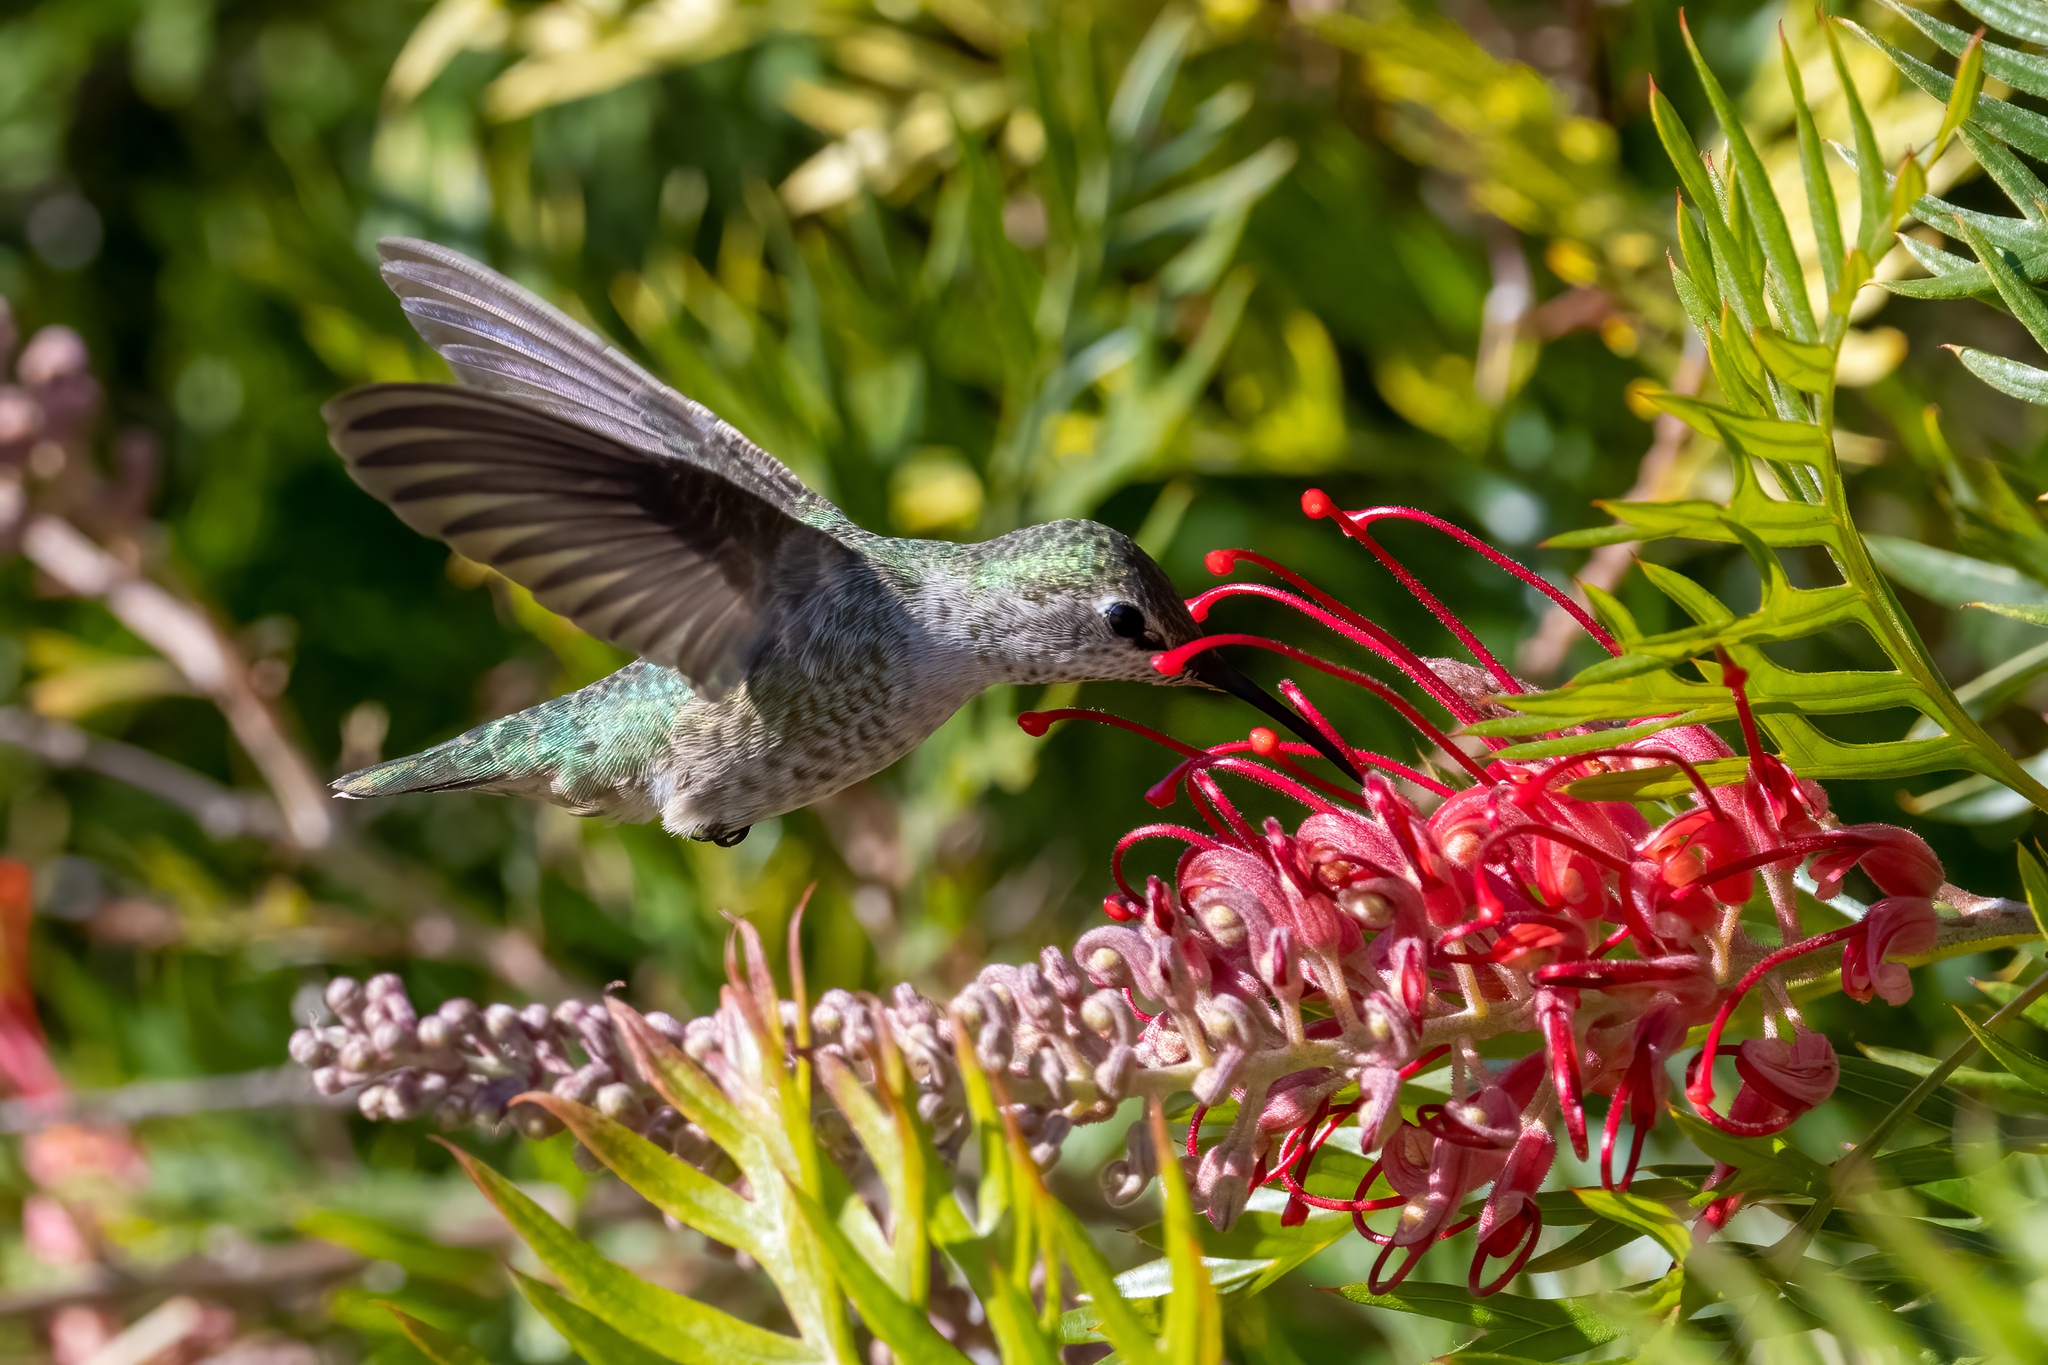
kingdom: Animalia
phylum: Chordata
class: Aves
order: Apodiformes
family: Trochilidae
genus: Calypte
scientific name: Calypte anna
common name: Anna's hummingbird
